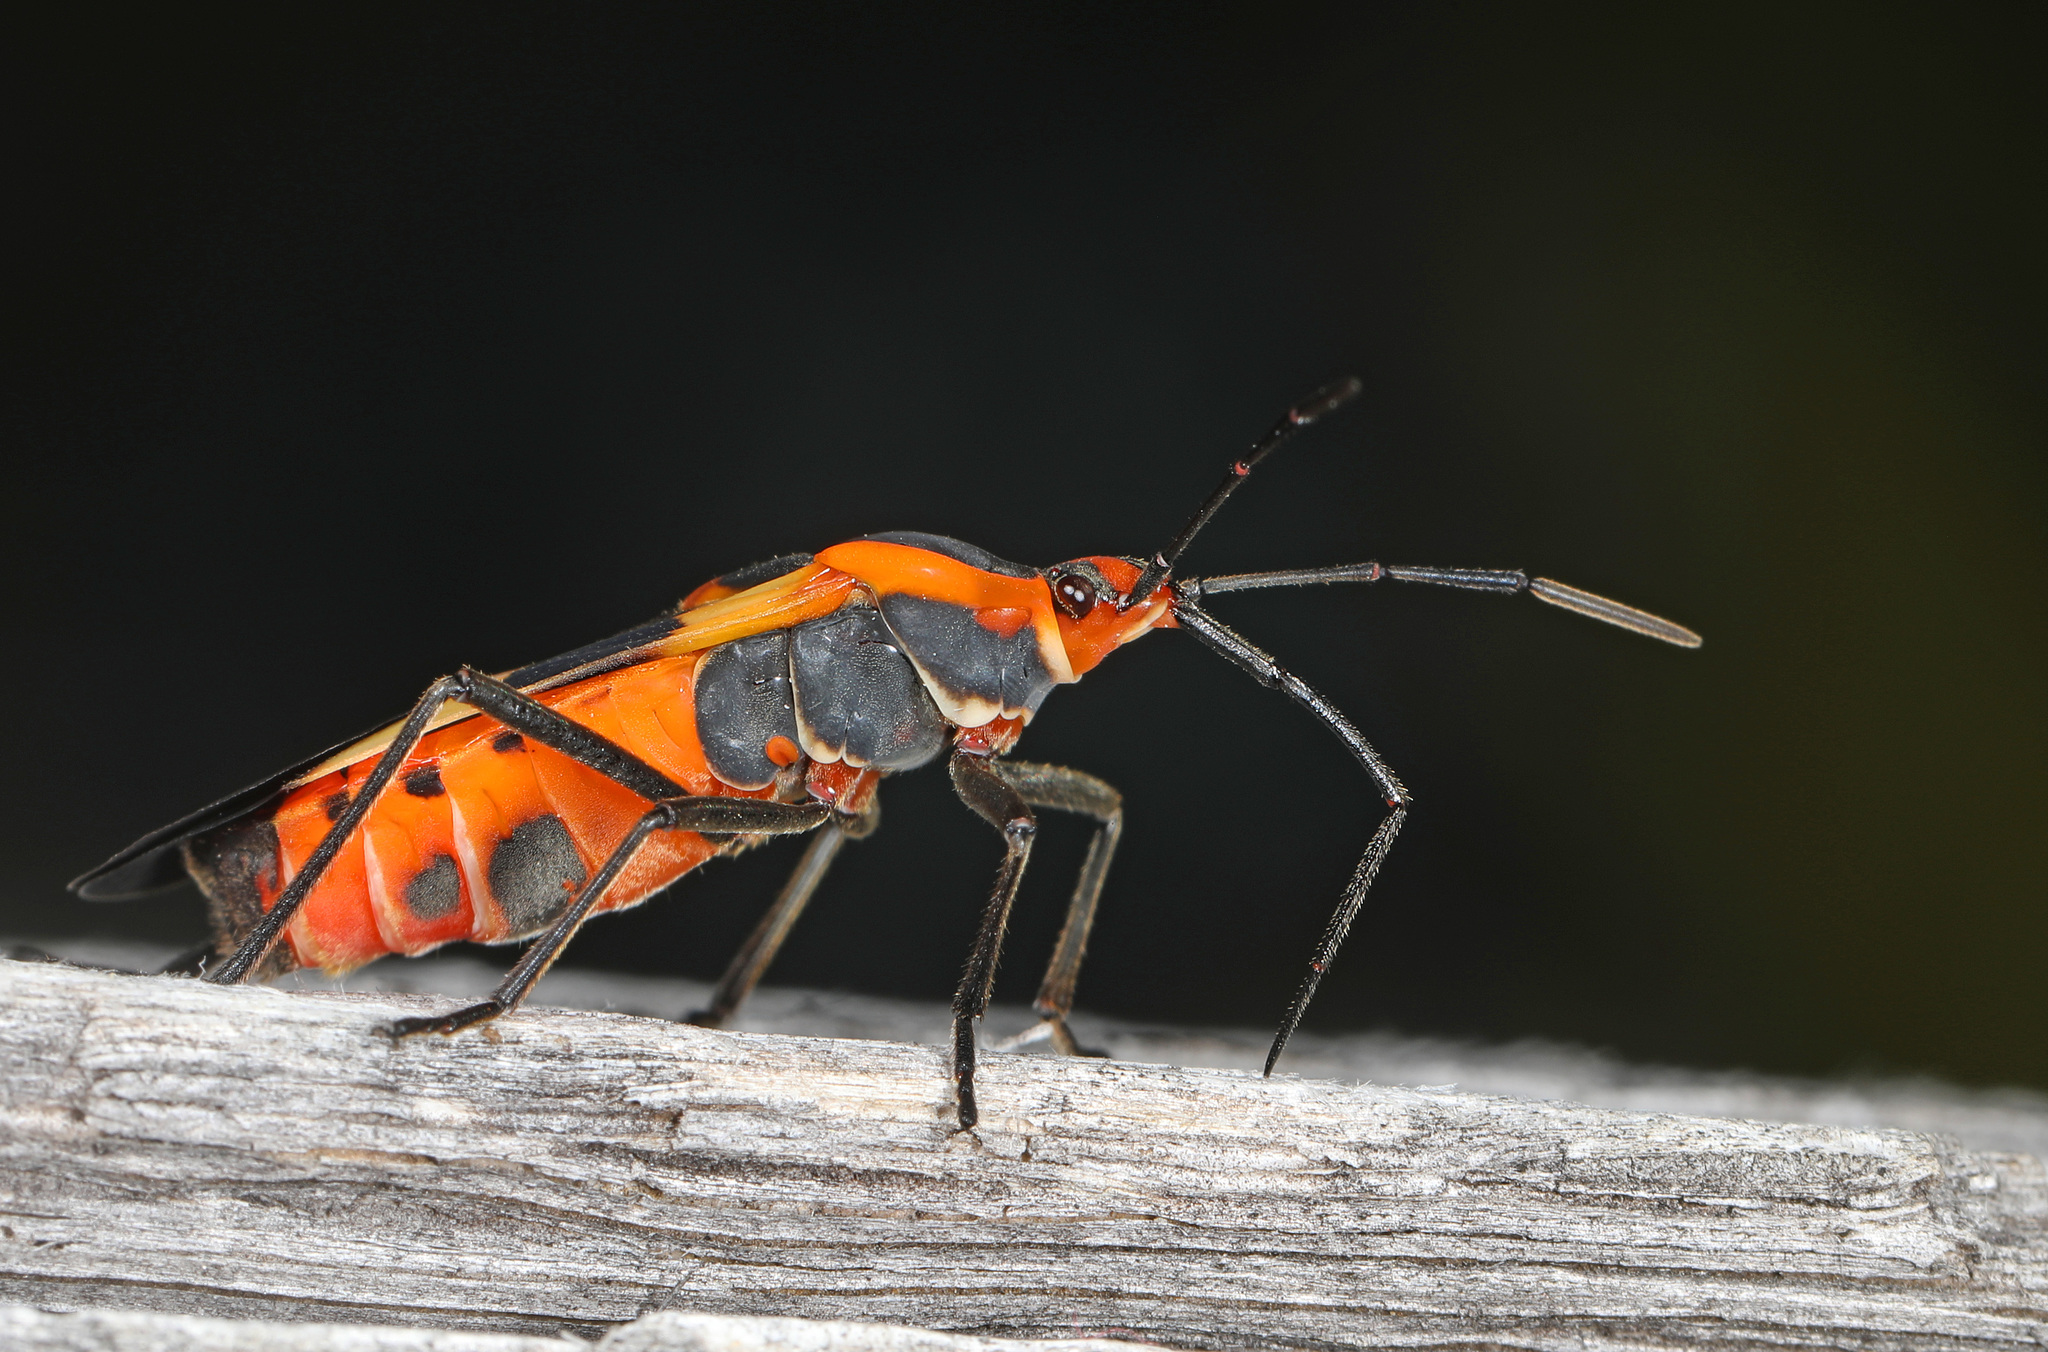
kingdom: Animalia
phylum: Arthropoda
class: Insecta
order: Hemiptera
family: Lygaeidae
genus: Oncopeltus
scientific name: Oncopeltus fasciatus
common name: Large milkweed bug
